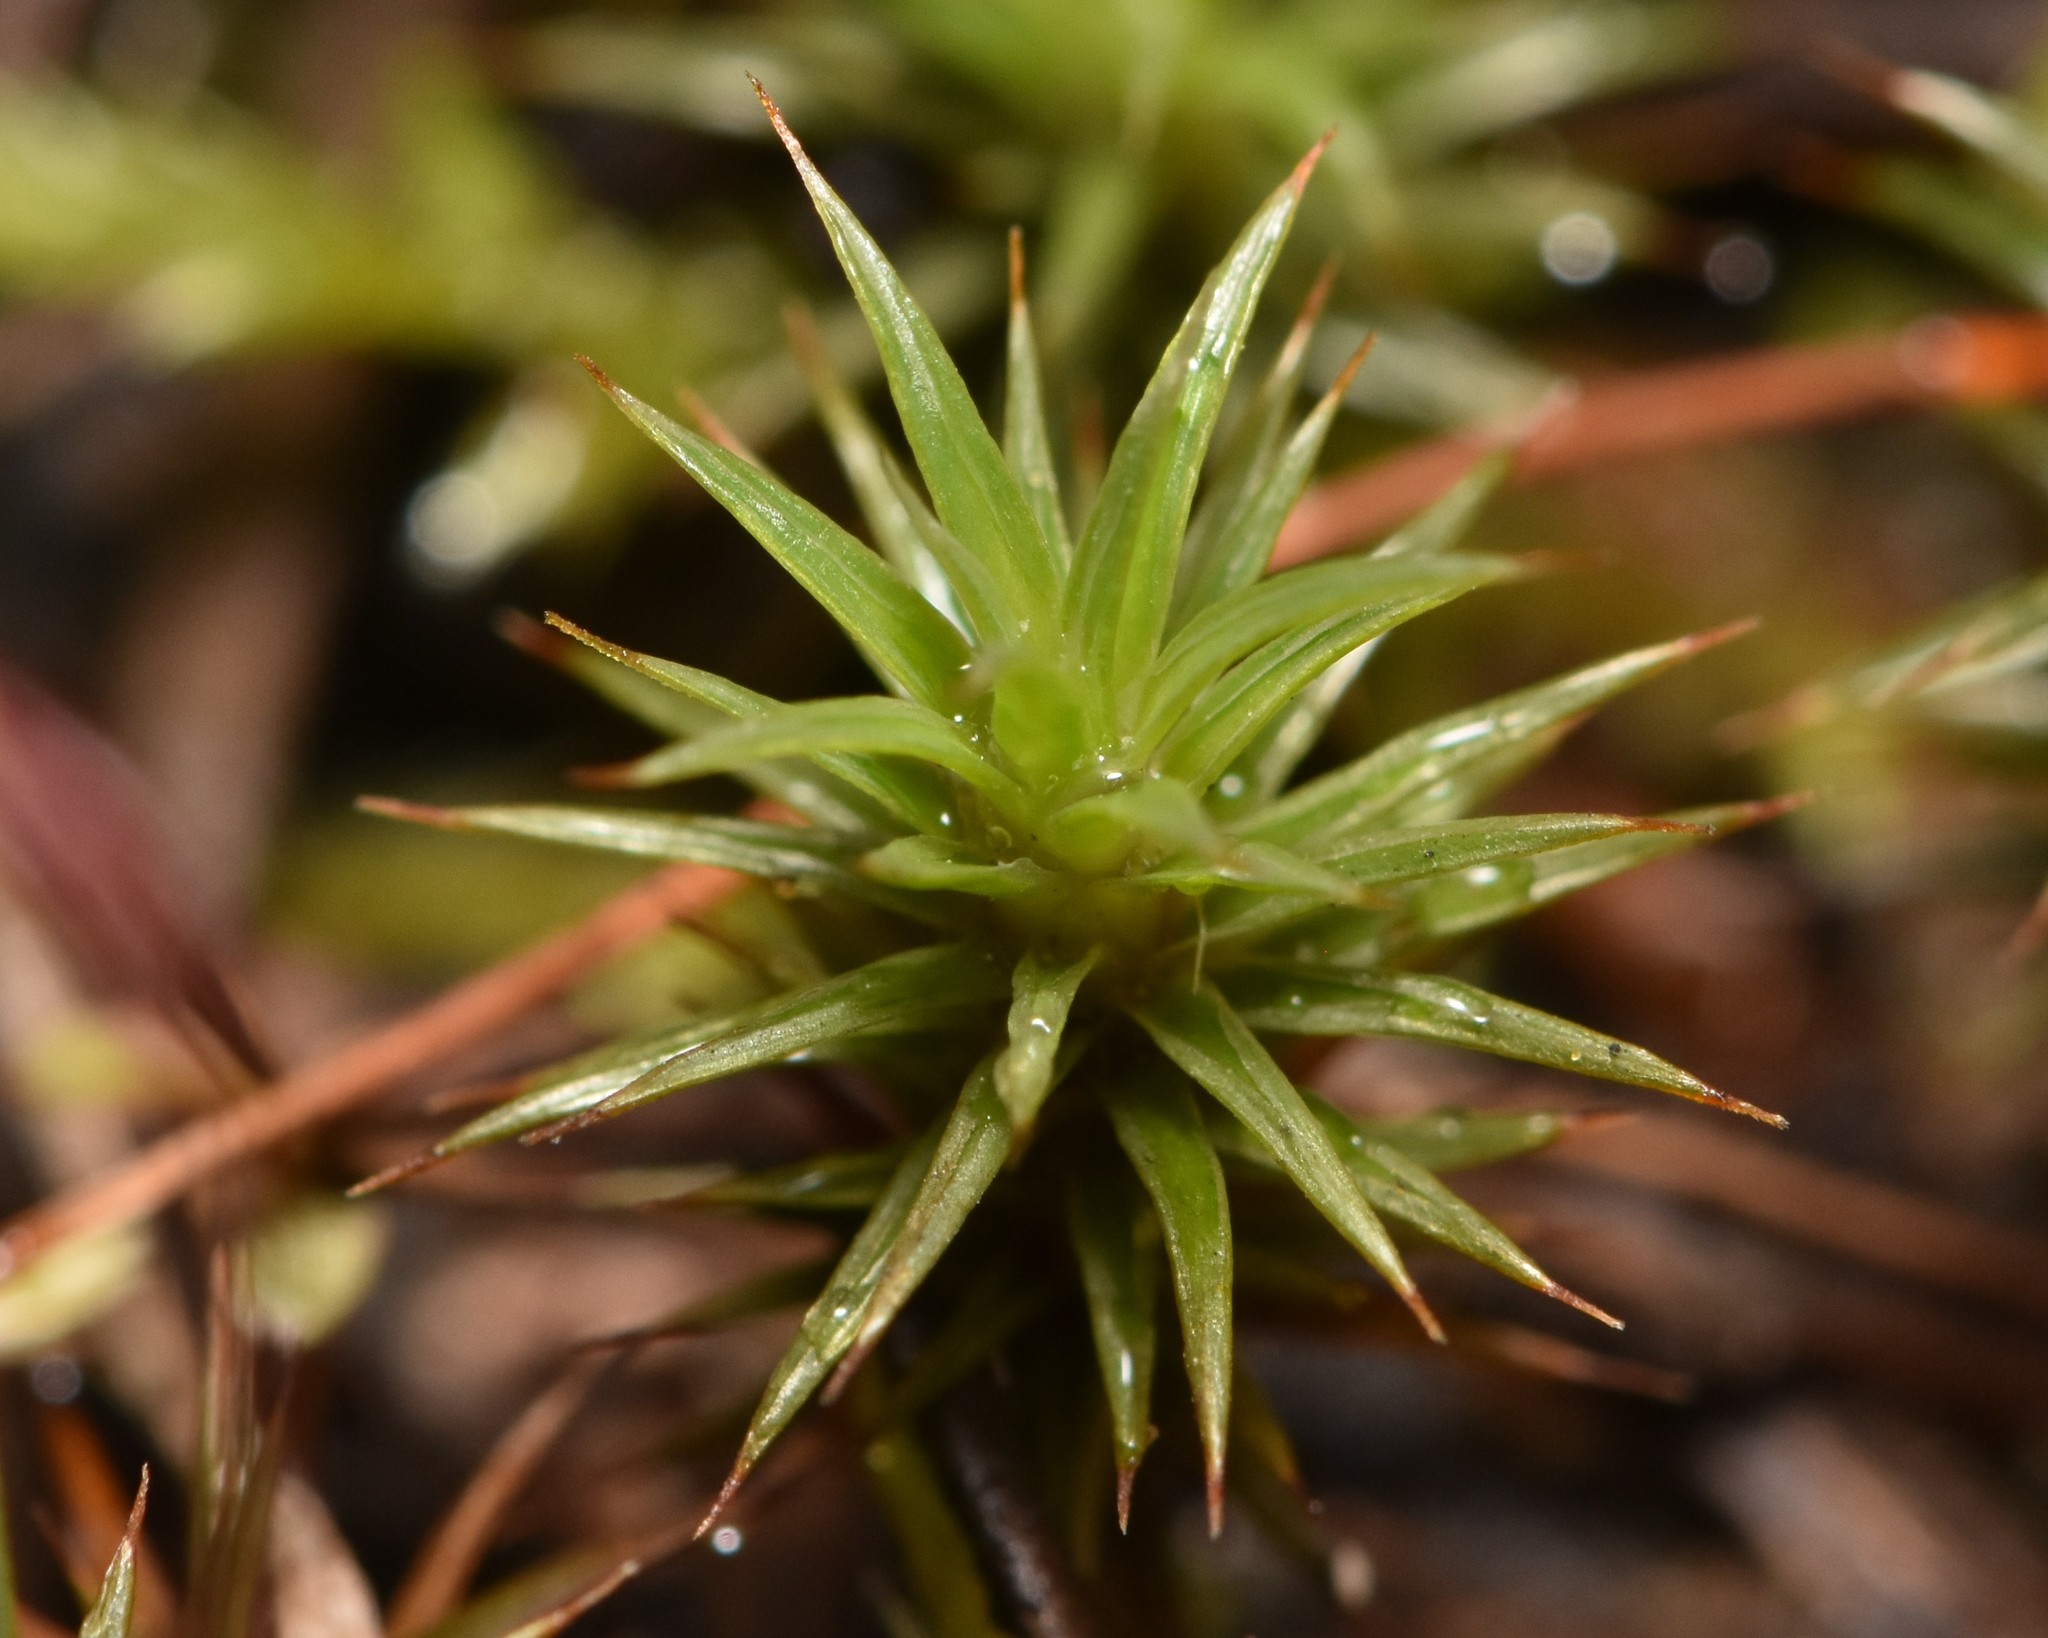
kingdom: Plantae
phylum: Bryophyta
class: Polytrichopsida
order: Polytrichales
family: Polytrichaceae
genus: Polytrichum
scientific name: Polytrichum juniperinum
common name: Juniper haircap moss
